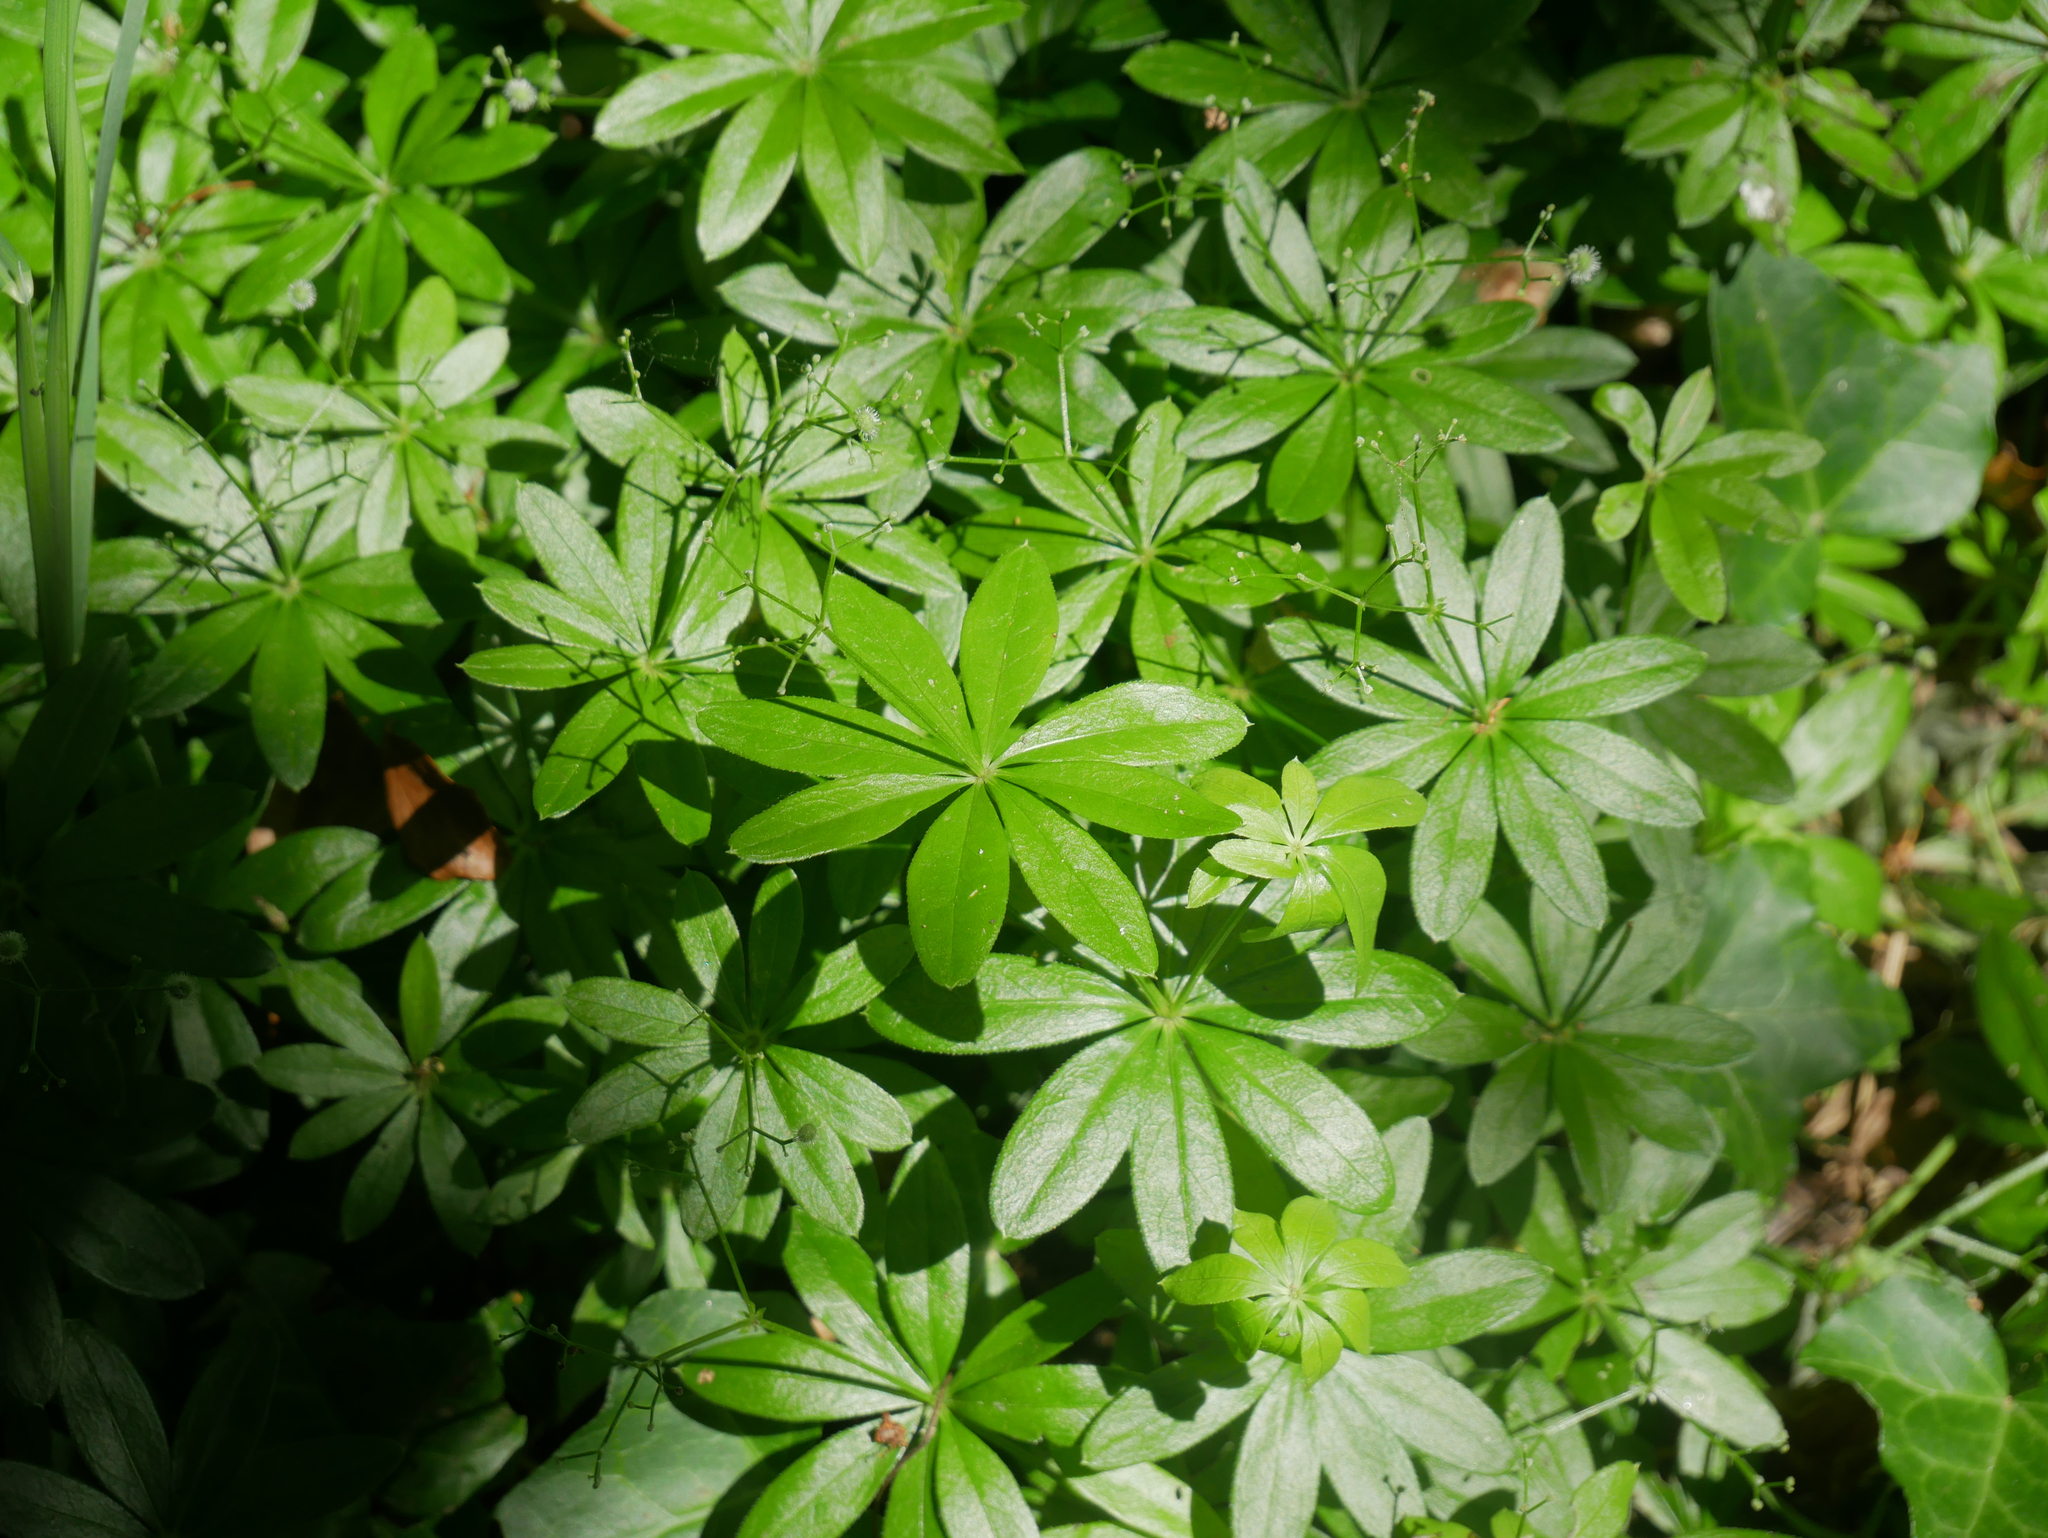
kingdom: Plantae
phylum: Tracheophyta
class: Magnoliopsida
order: Gentianales
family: Rubiaceae
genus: Galium
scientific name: Galium odoratum
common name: Sweet woodruff
